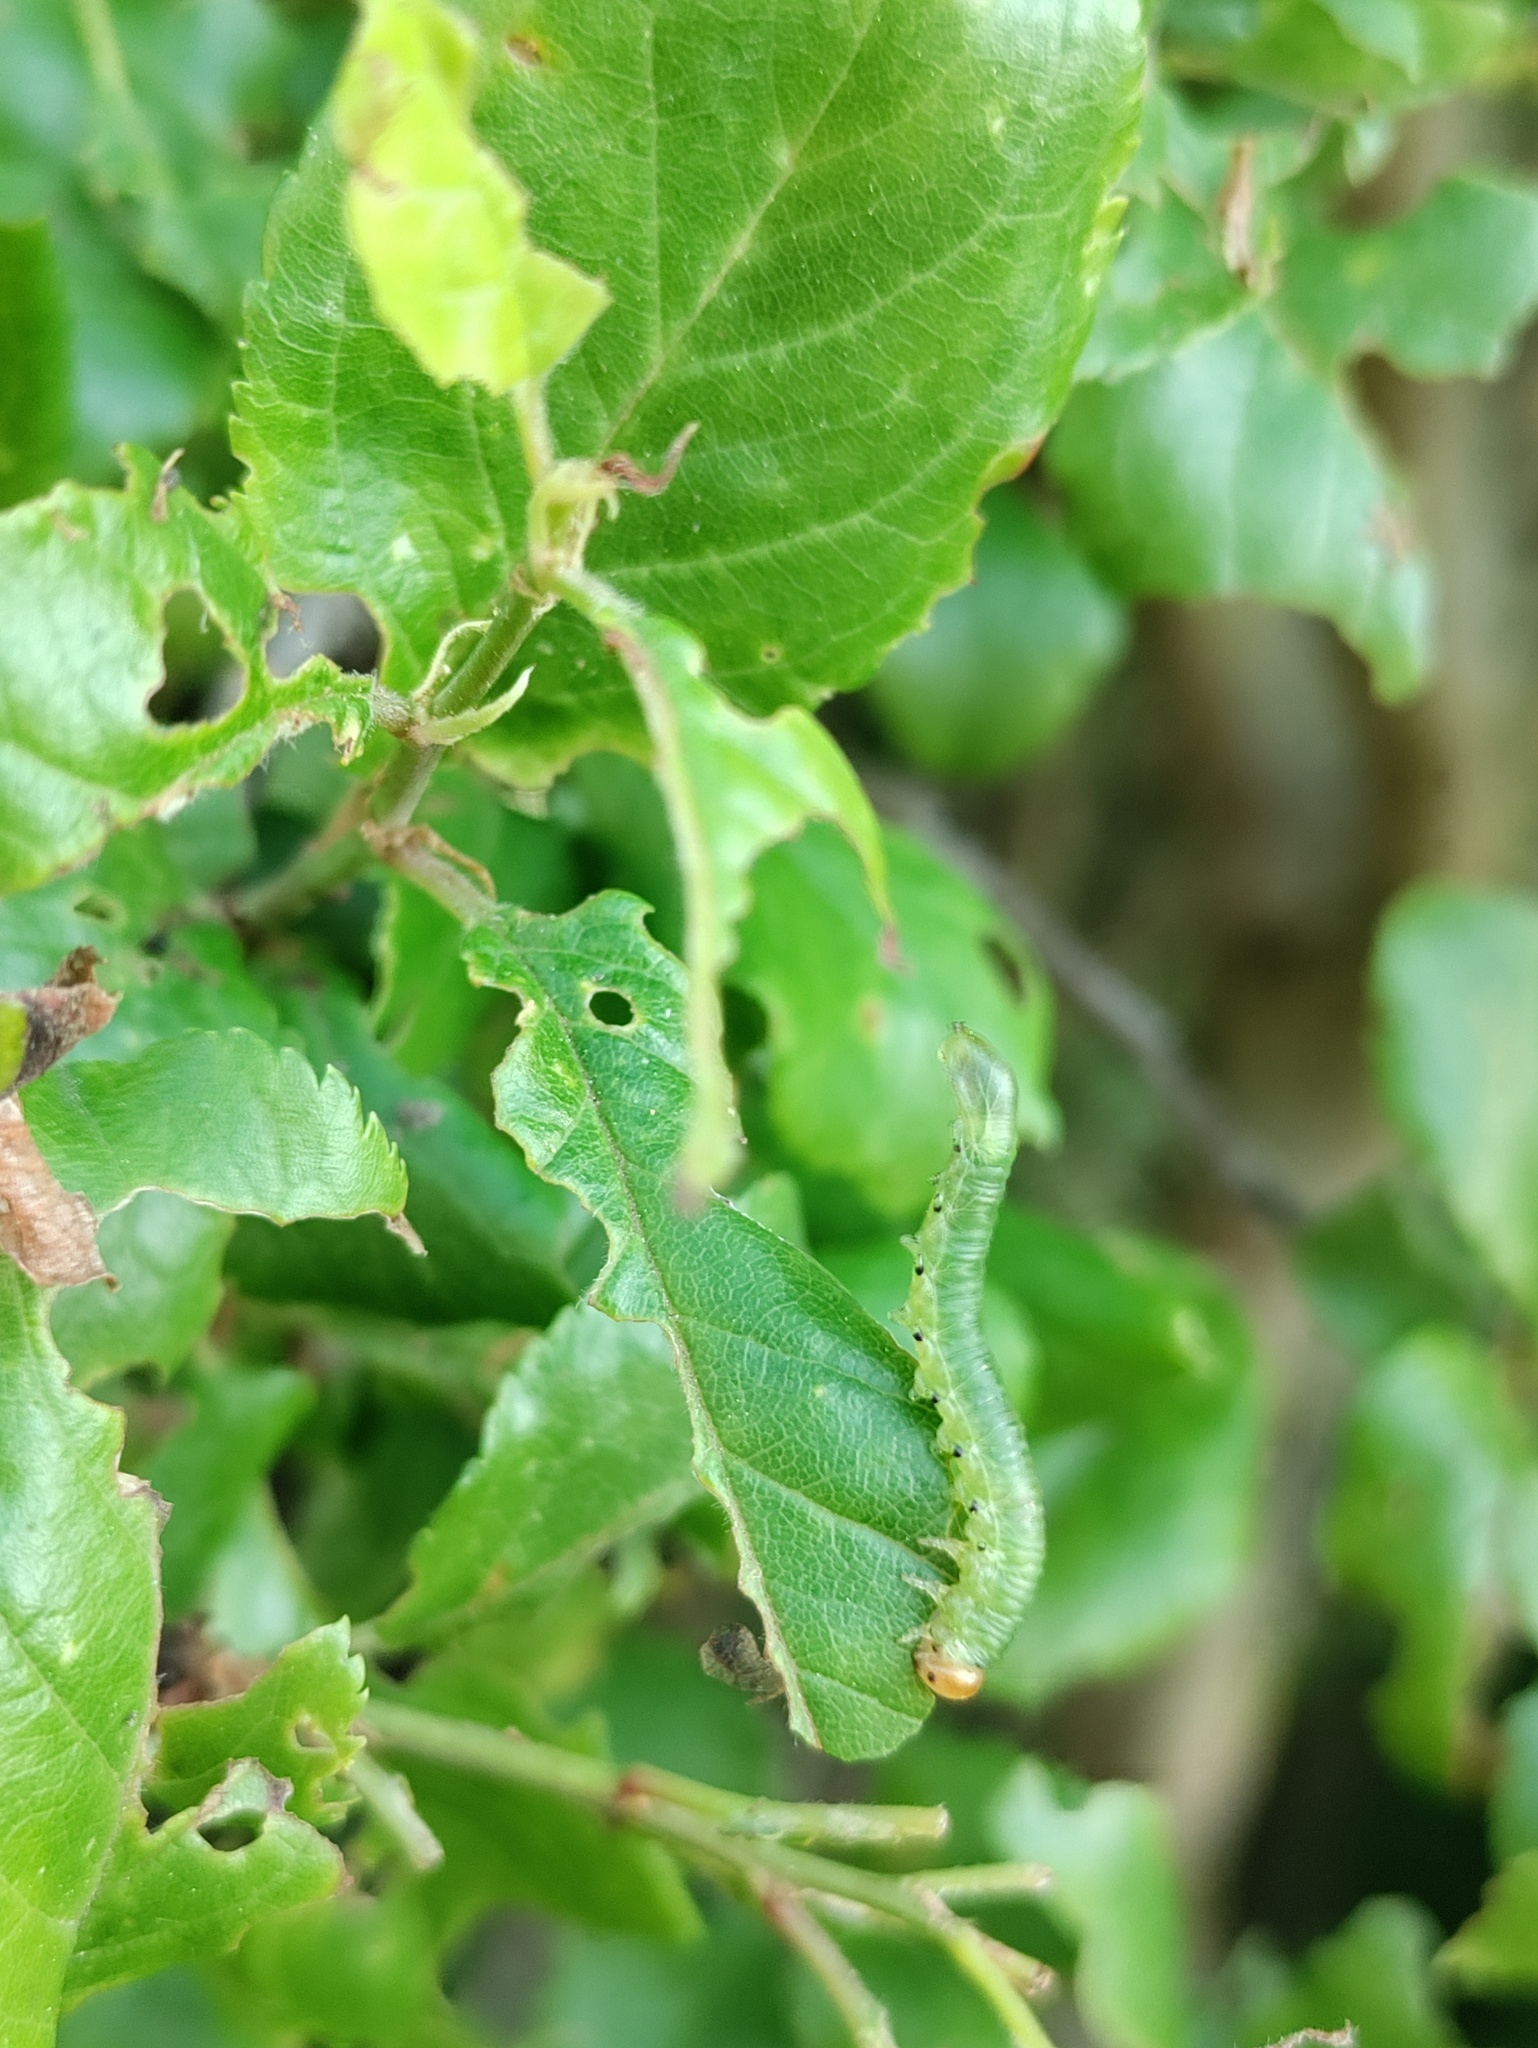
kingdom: Animalia
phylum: Arthropoda
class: Insecta
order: Hymenoptera
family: Tenthredinidae
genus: Nematus
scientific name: Nematus lucidus
